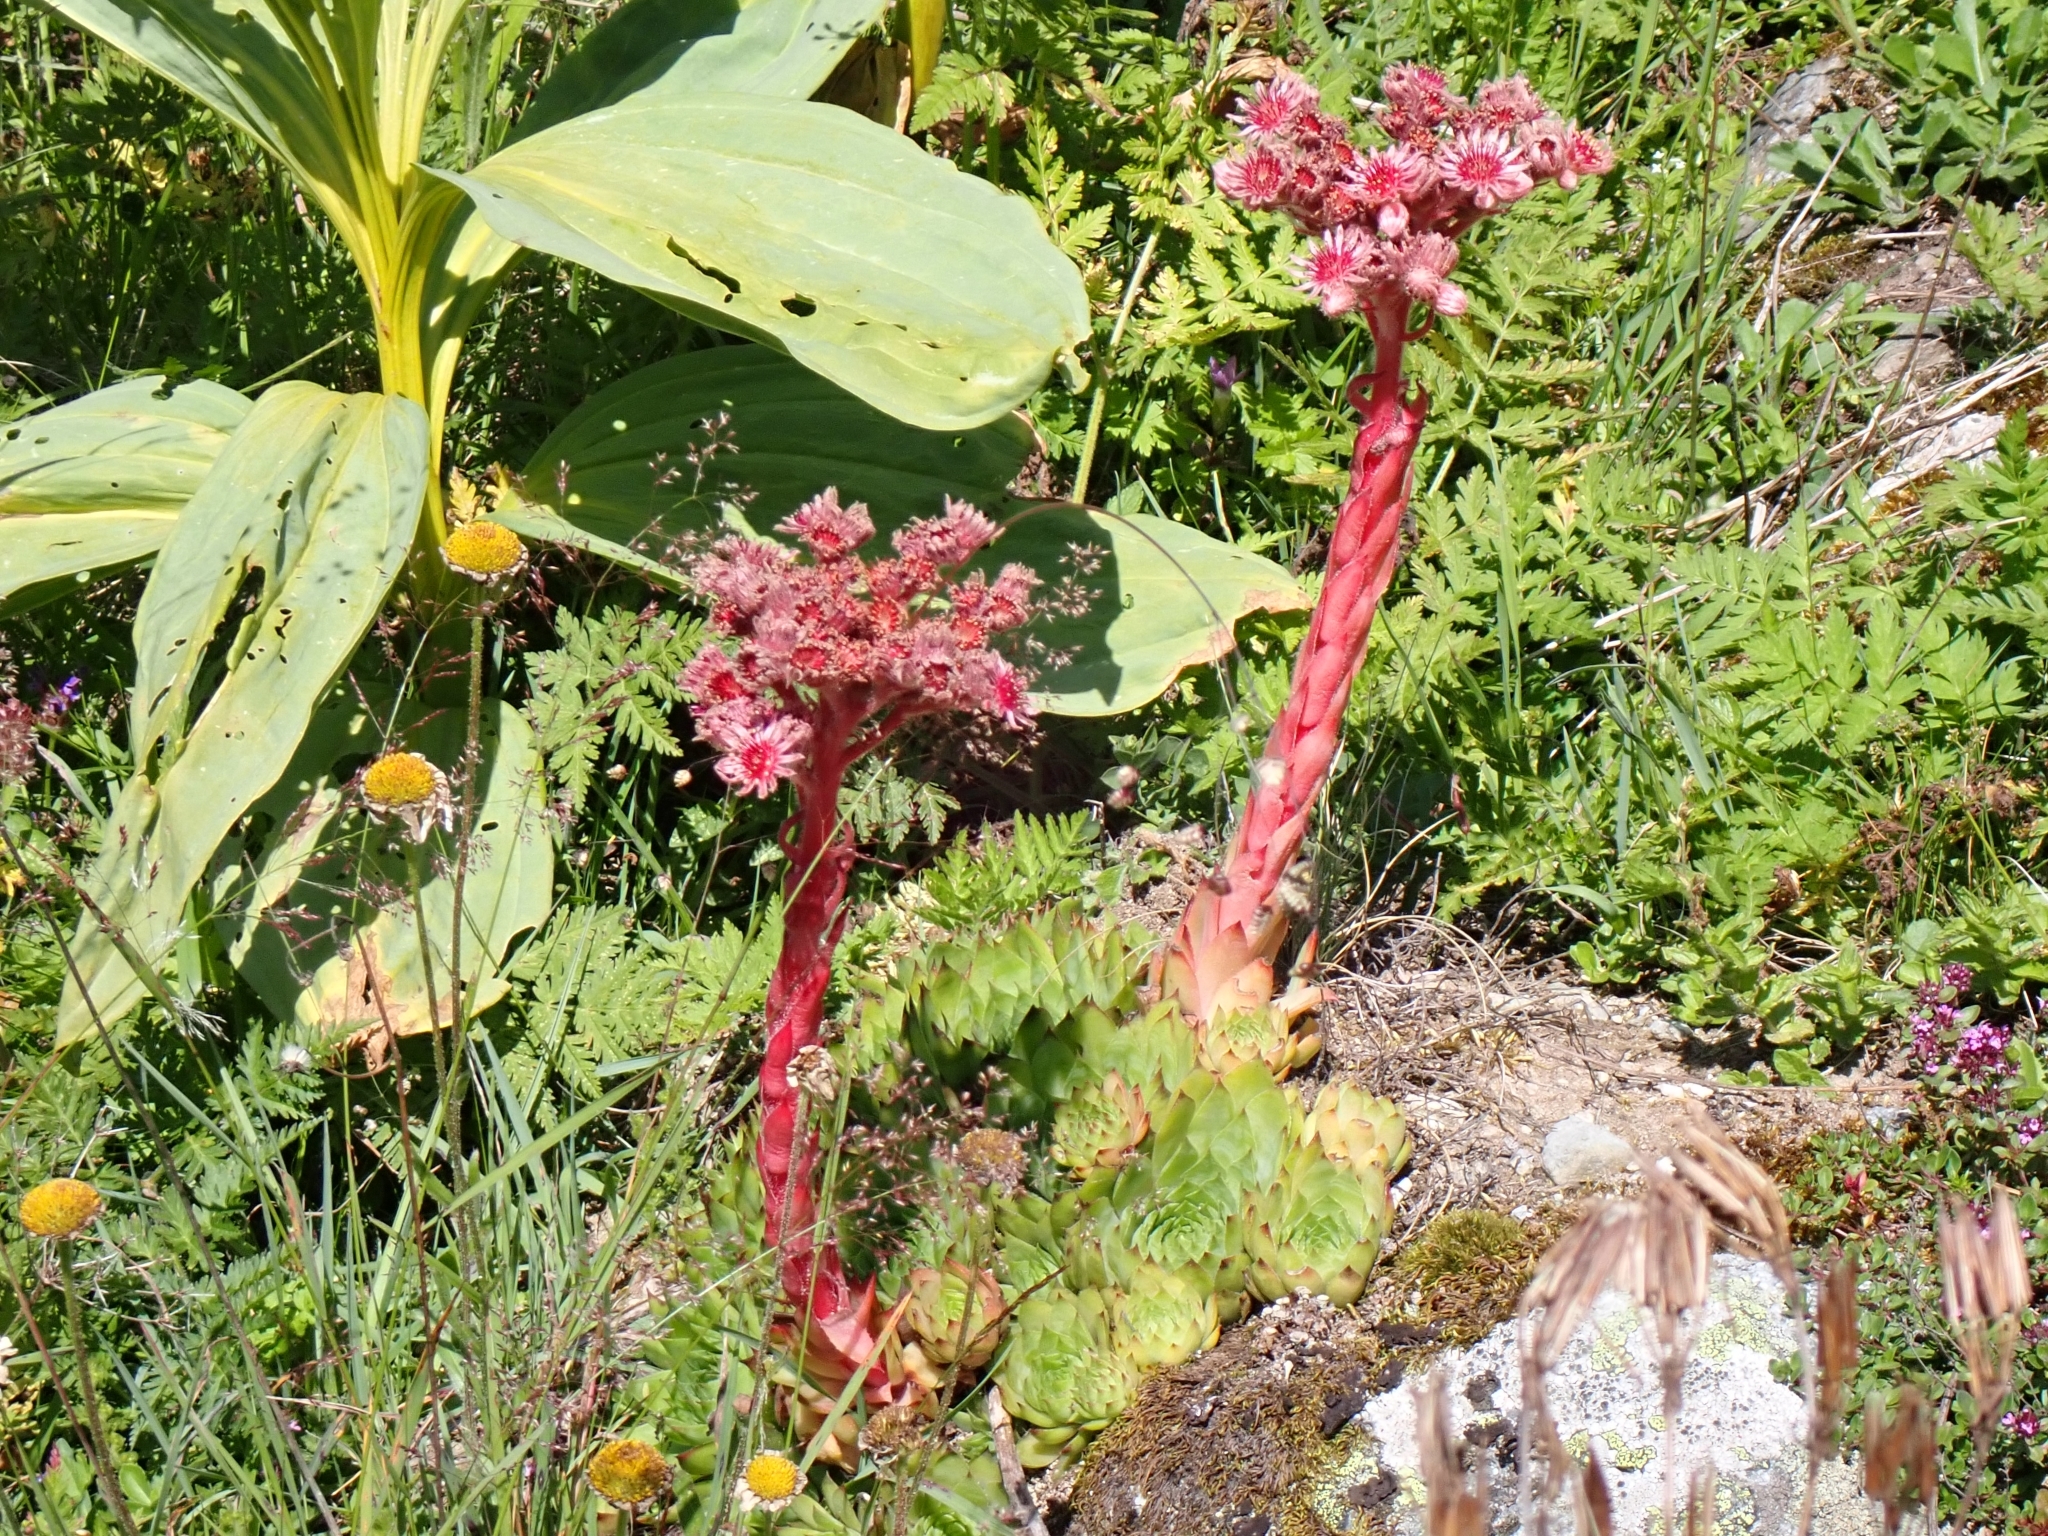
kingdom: Plantae
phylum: Tracheophyta
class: Magnoliopsida
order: Saxifragales
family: Crassulaceae
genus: Sempervivum
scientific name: Sempervivum tectorum
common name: House-leek
